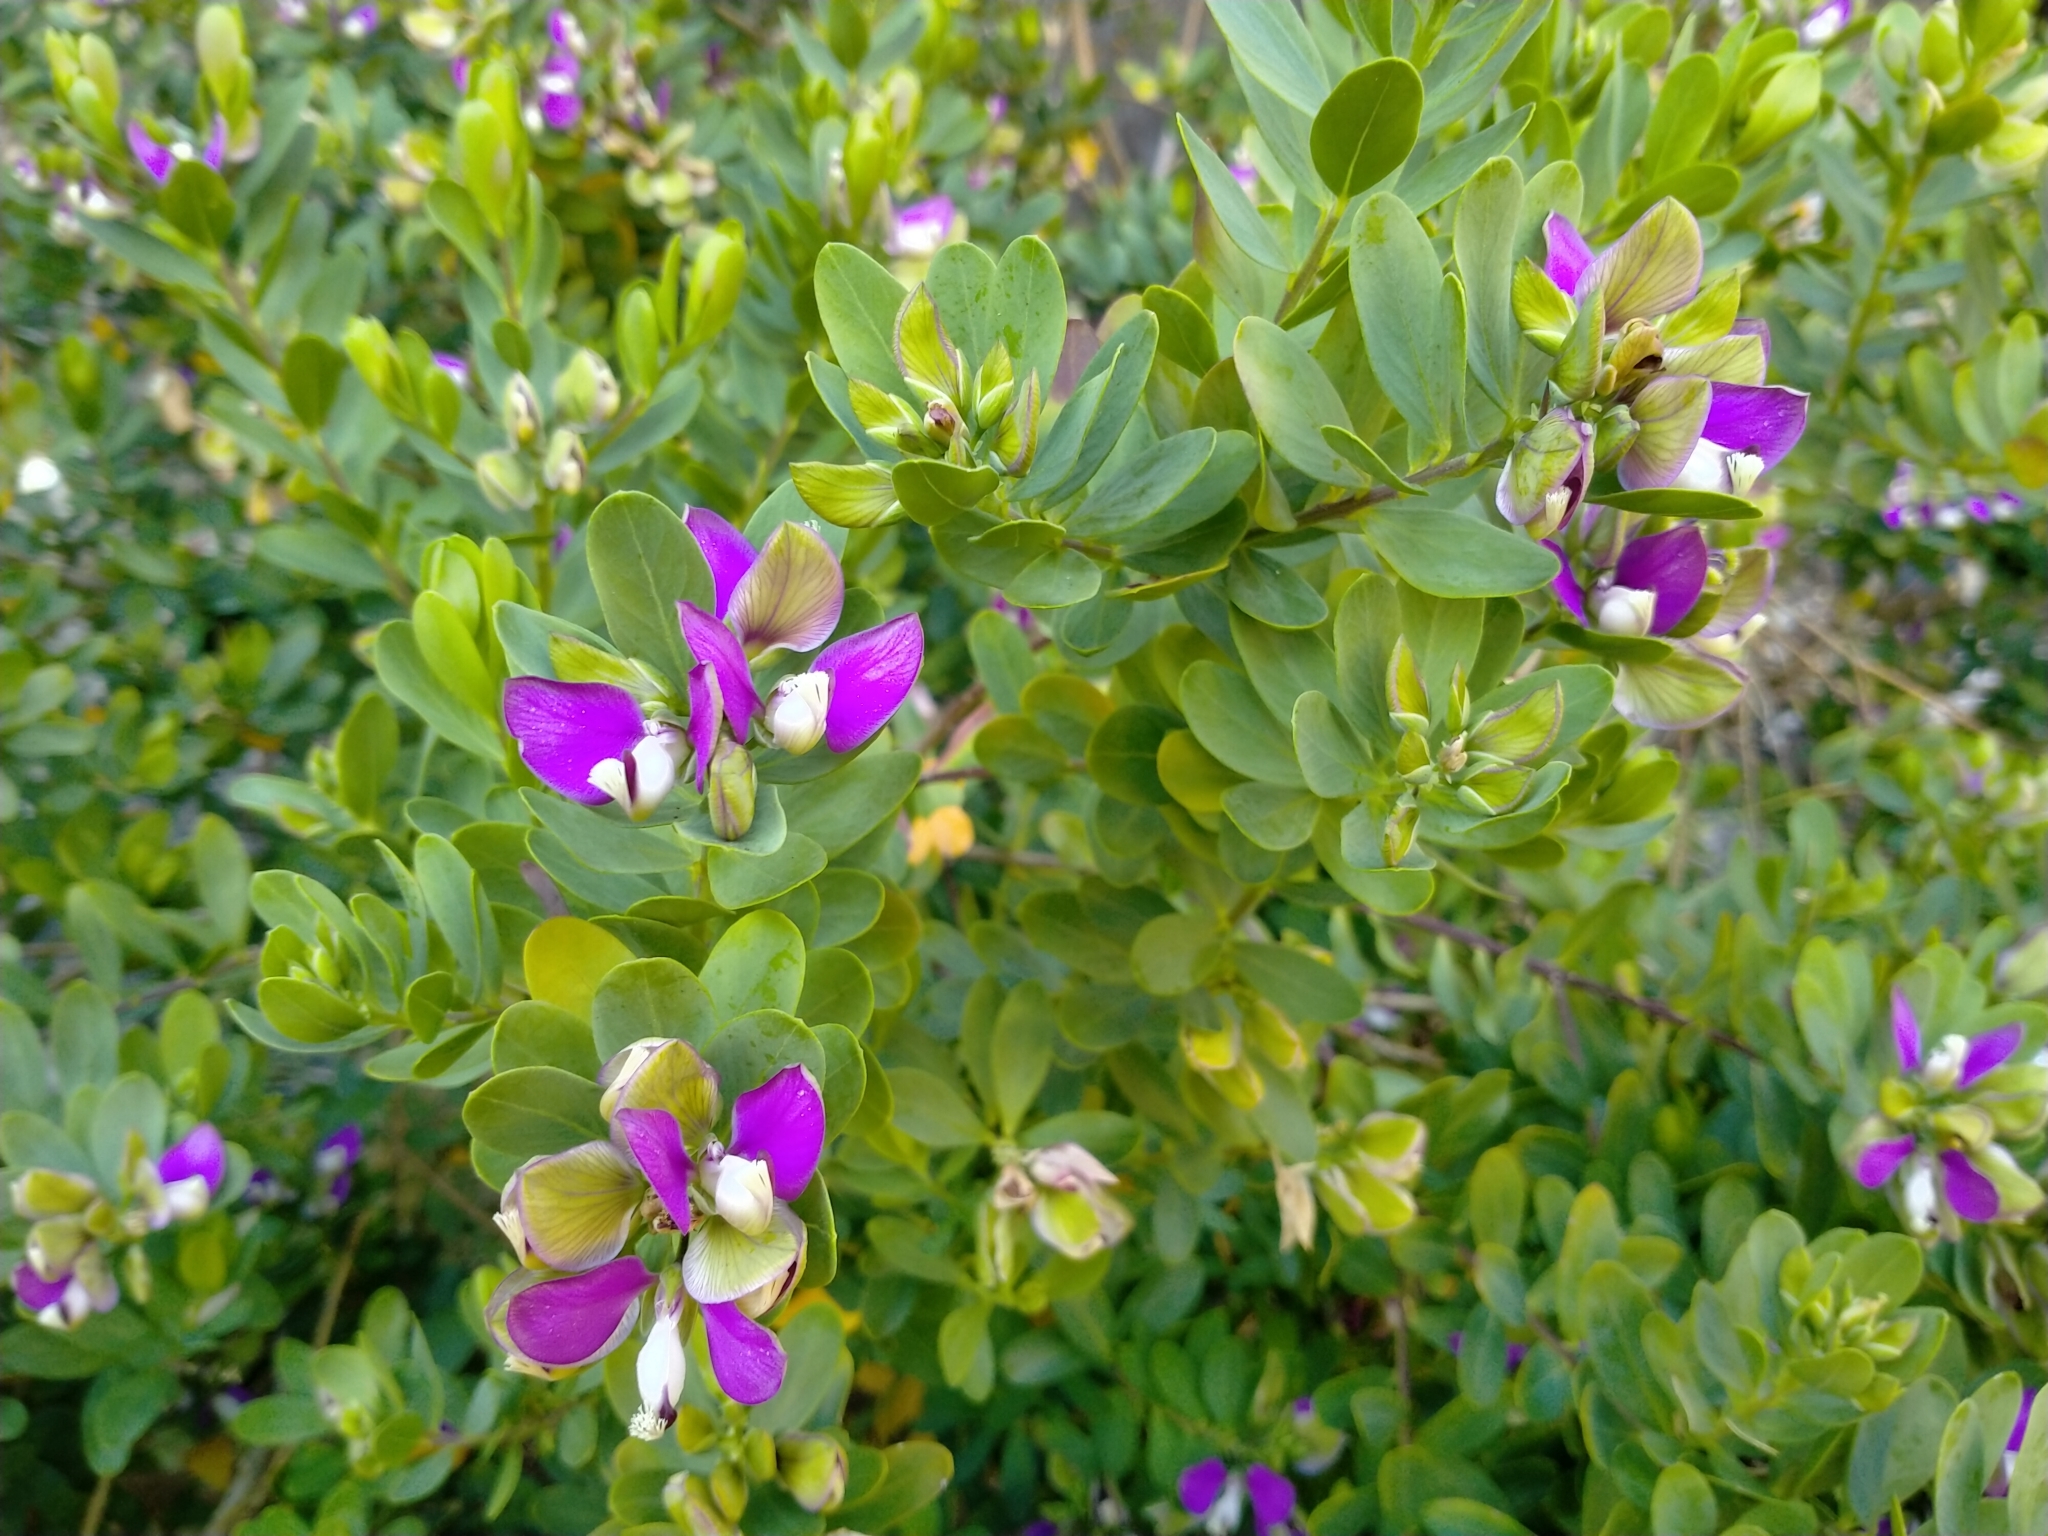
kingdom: Plantae
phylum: Tracheophyta
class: Magnoliopsida
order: Fabales
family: Polygalaceae
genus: Polygala
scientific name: Polygala myrtifolia
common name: Myrtle-leaf milkwort
